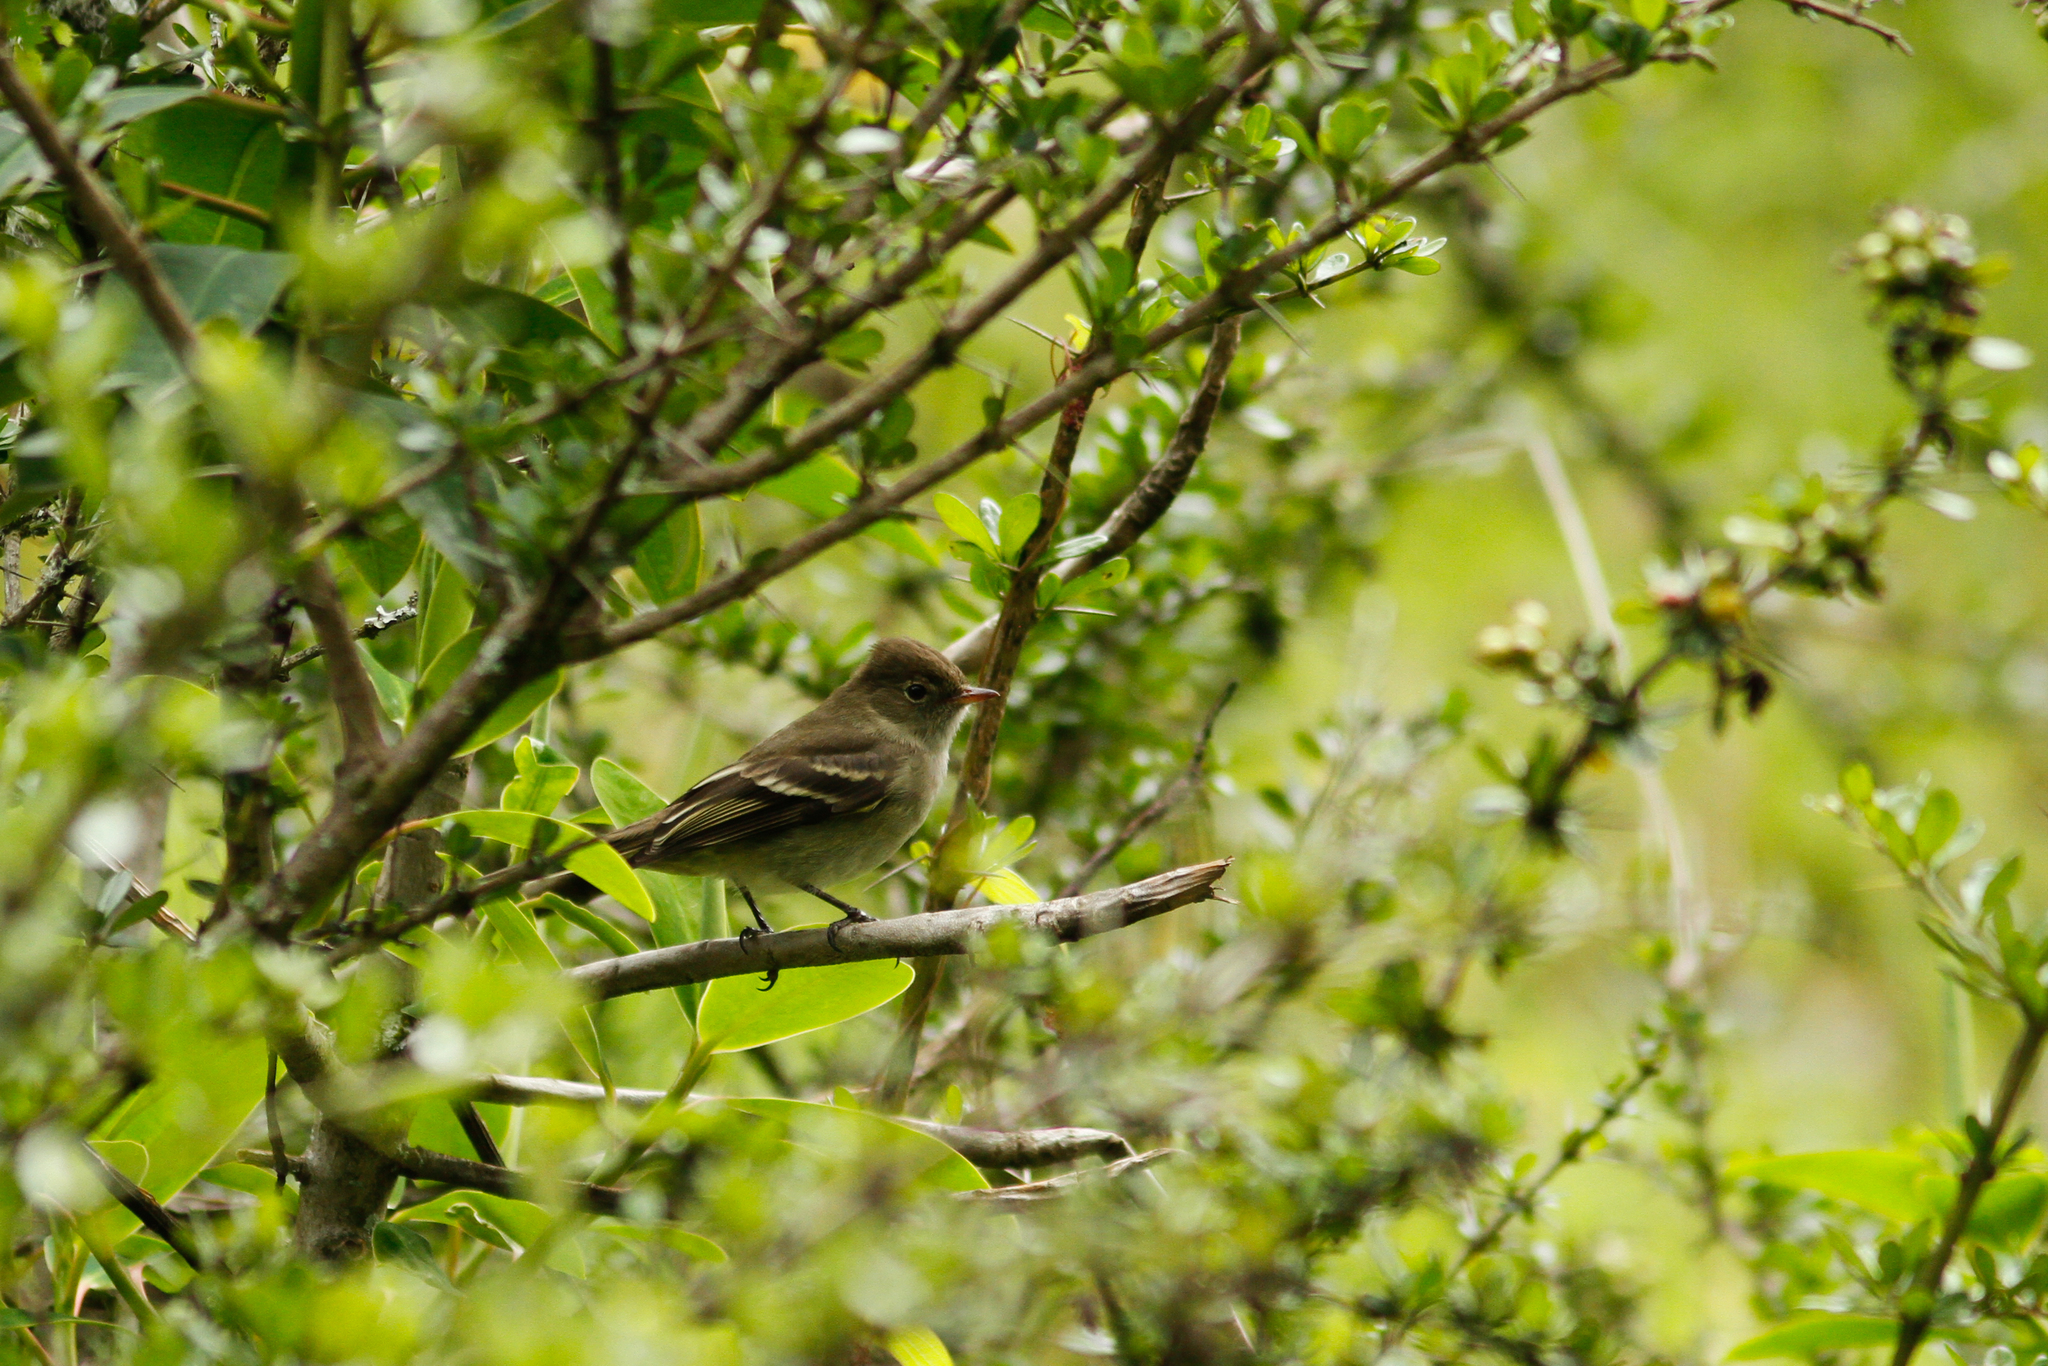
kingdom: Animalia
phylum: Chordata
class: Aves
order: Passeriformes
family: Tyrannidae
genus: Elaenia
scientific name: Elaenia pallatangae
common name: Sierran elaenia
